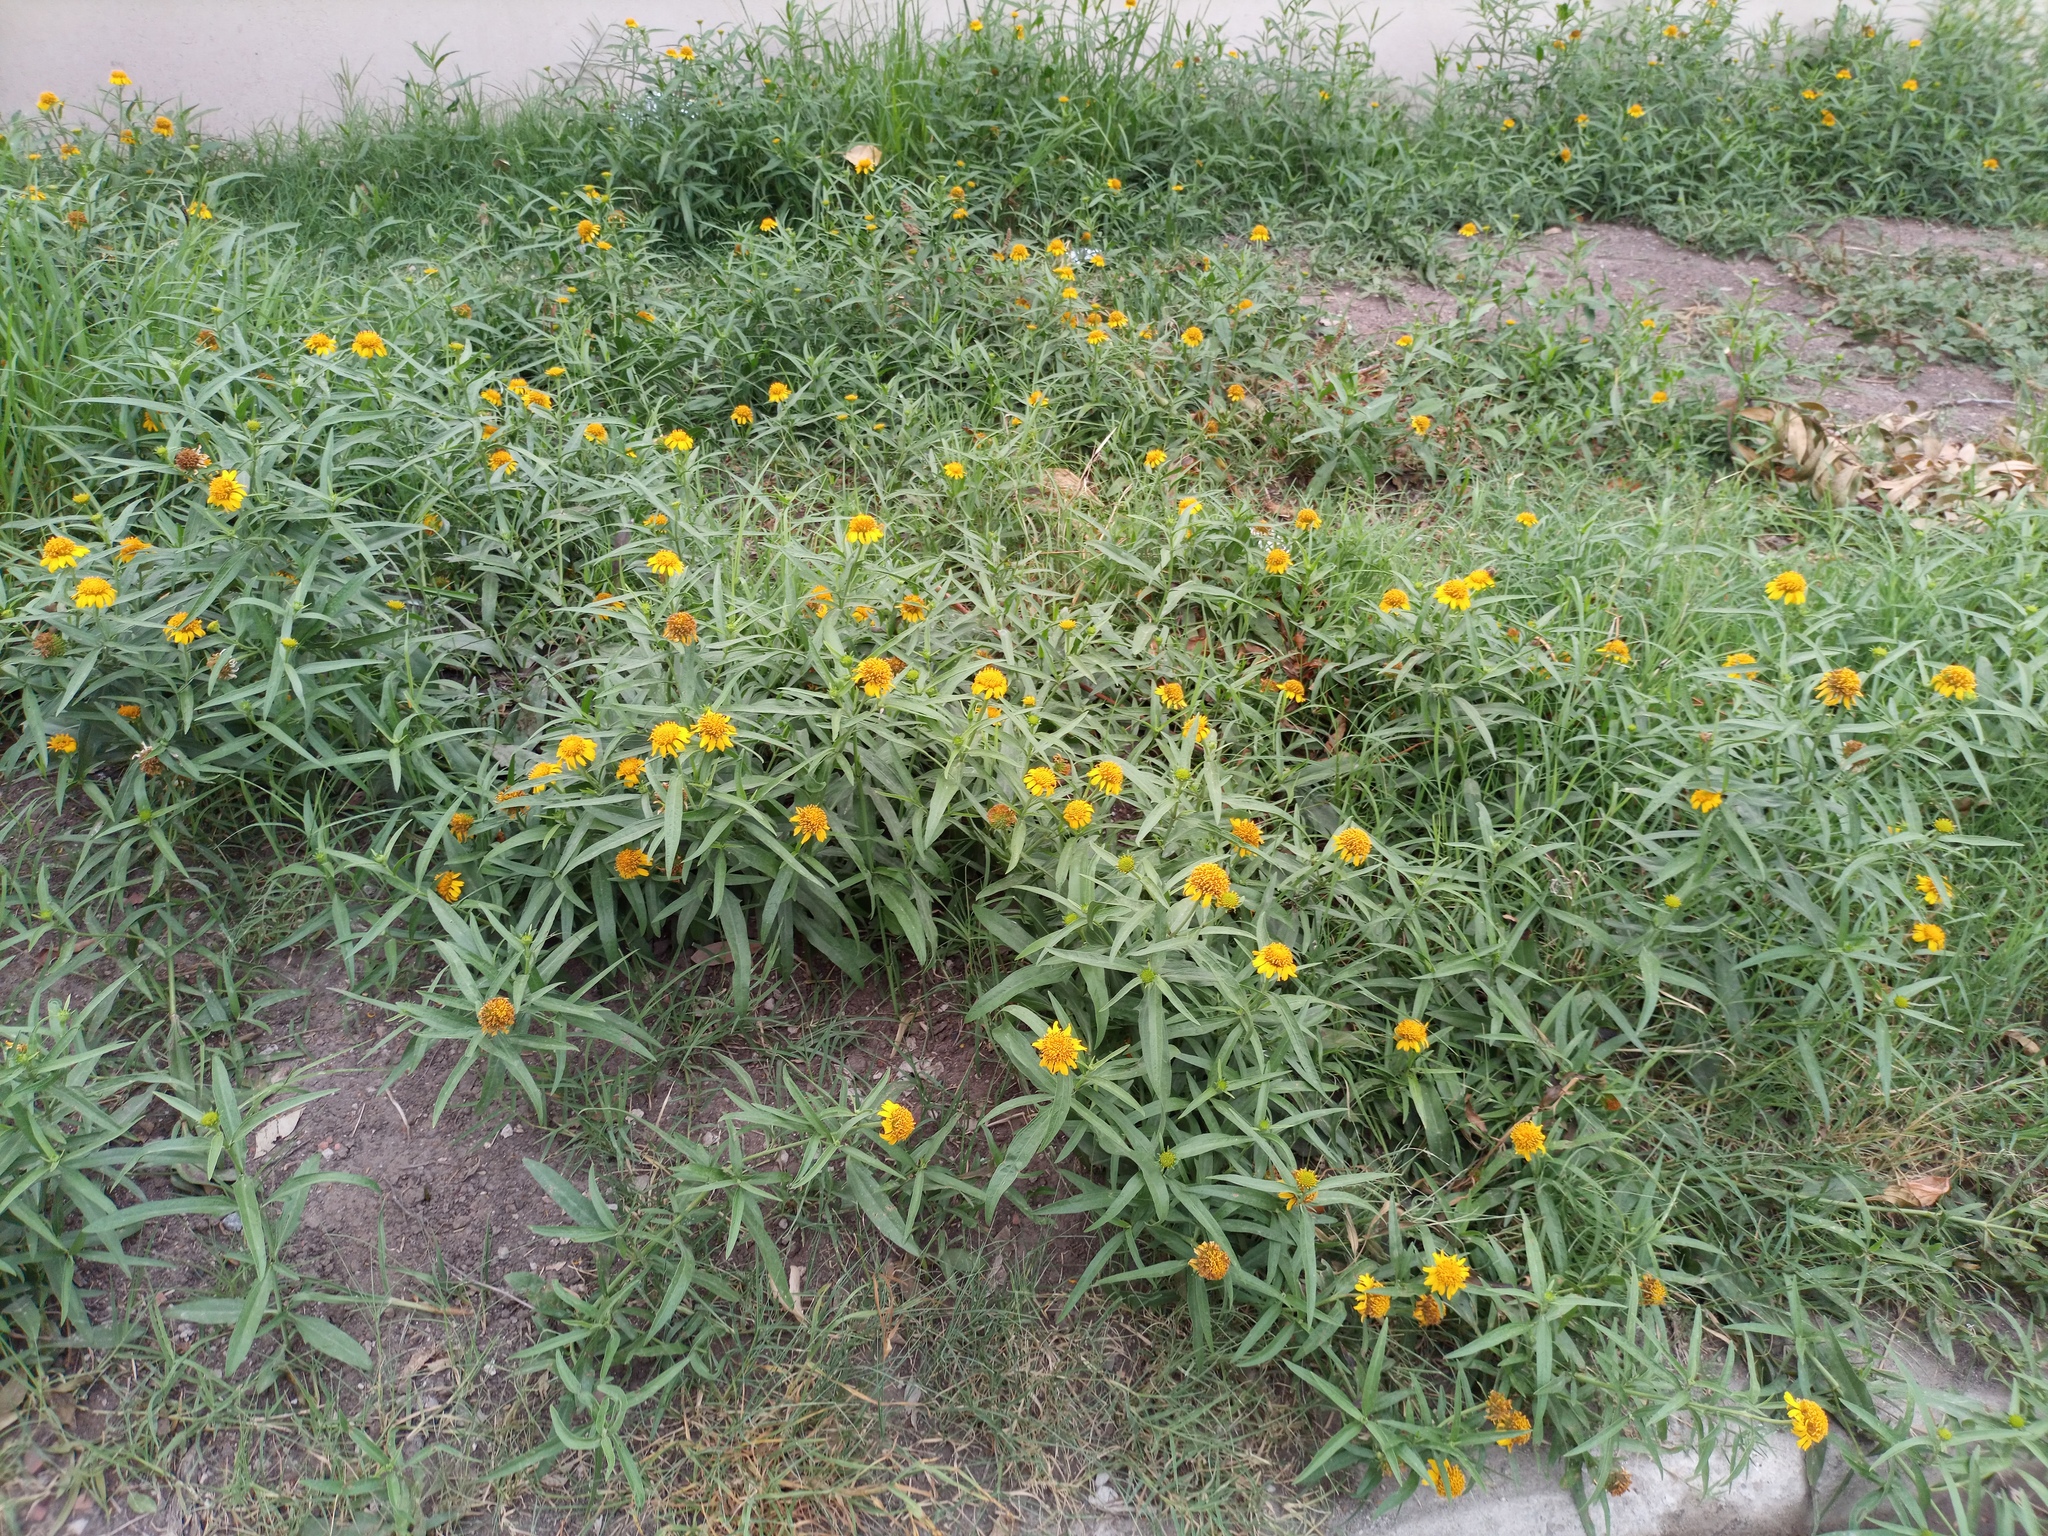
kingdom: Plantae
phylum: Tracheophyta
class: Magnoliopsida
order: Asterales
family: Asteraceae
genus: Pascalia
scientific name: Pascalia glauca
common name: Beach creeping oxeye
